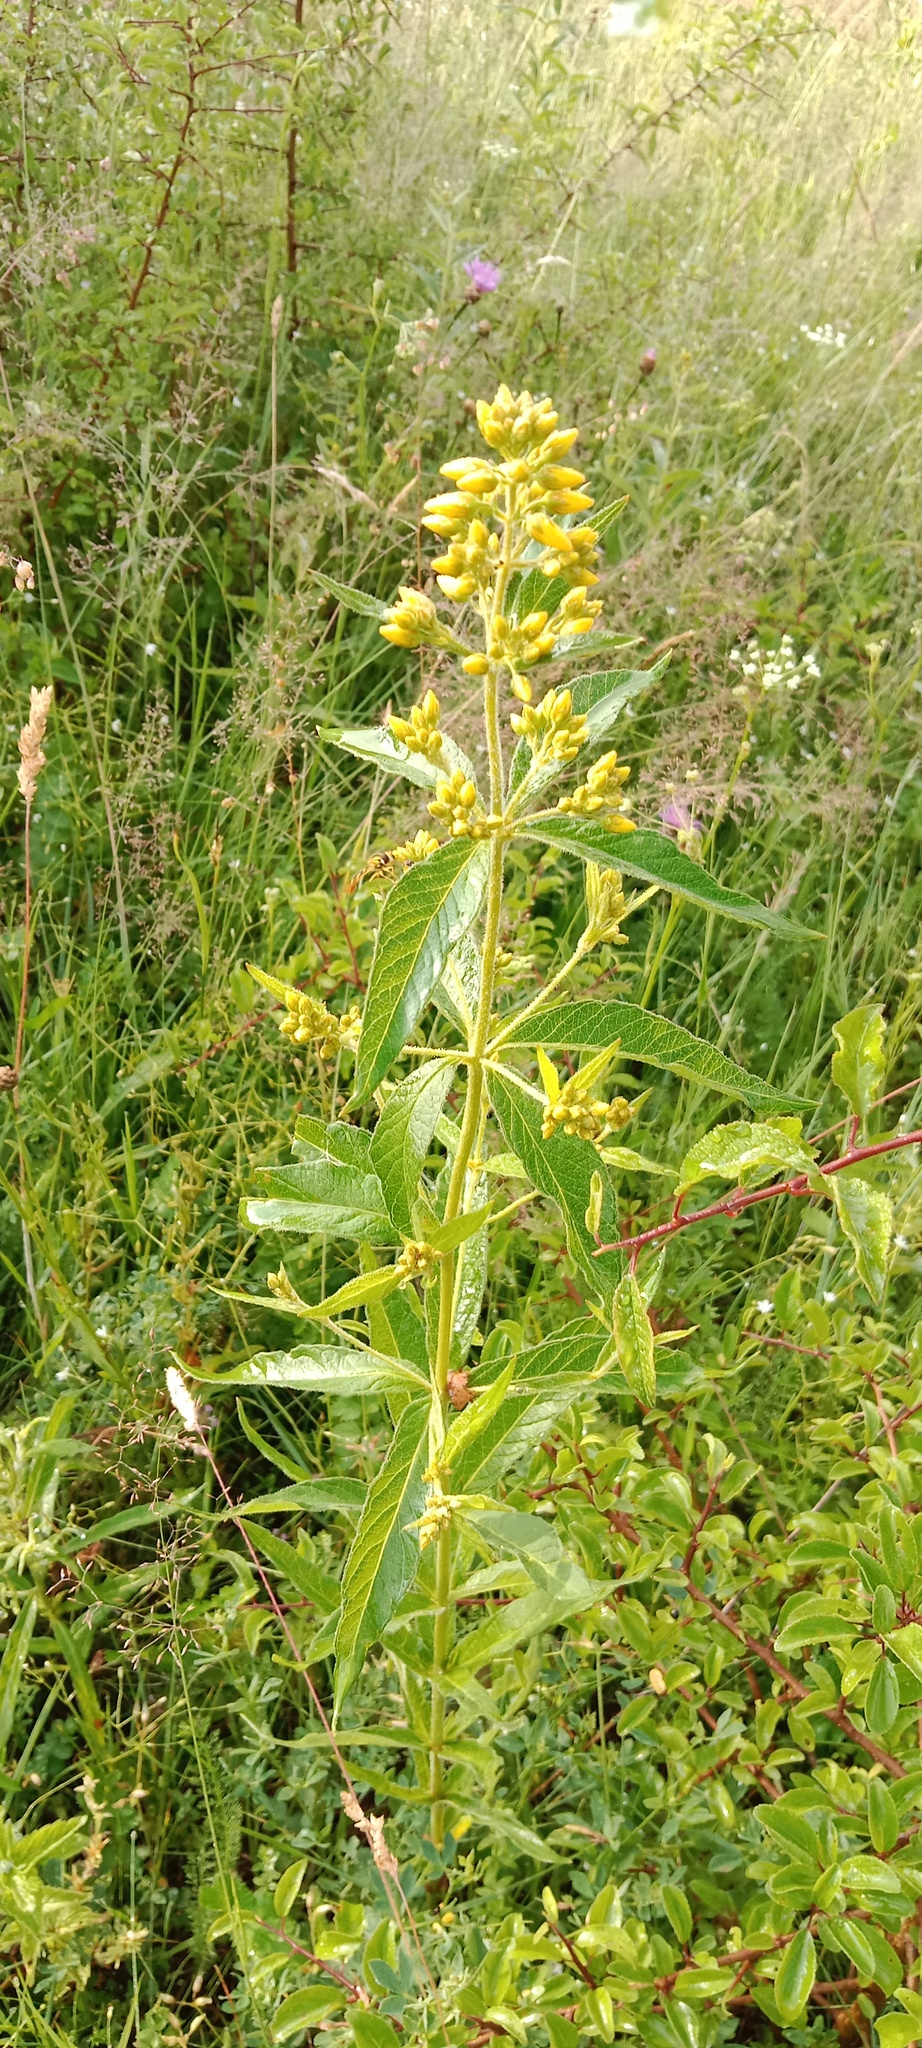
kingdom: Plantae
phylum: Tracheophyta
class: Magnoliopsida
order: Ericales
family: Primulaceae
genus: Lysimachia
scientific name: Lysimachia vulgaris
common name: Yellow loosestrife
